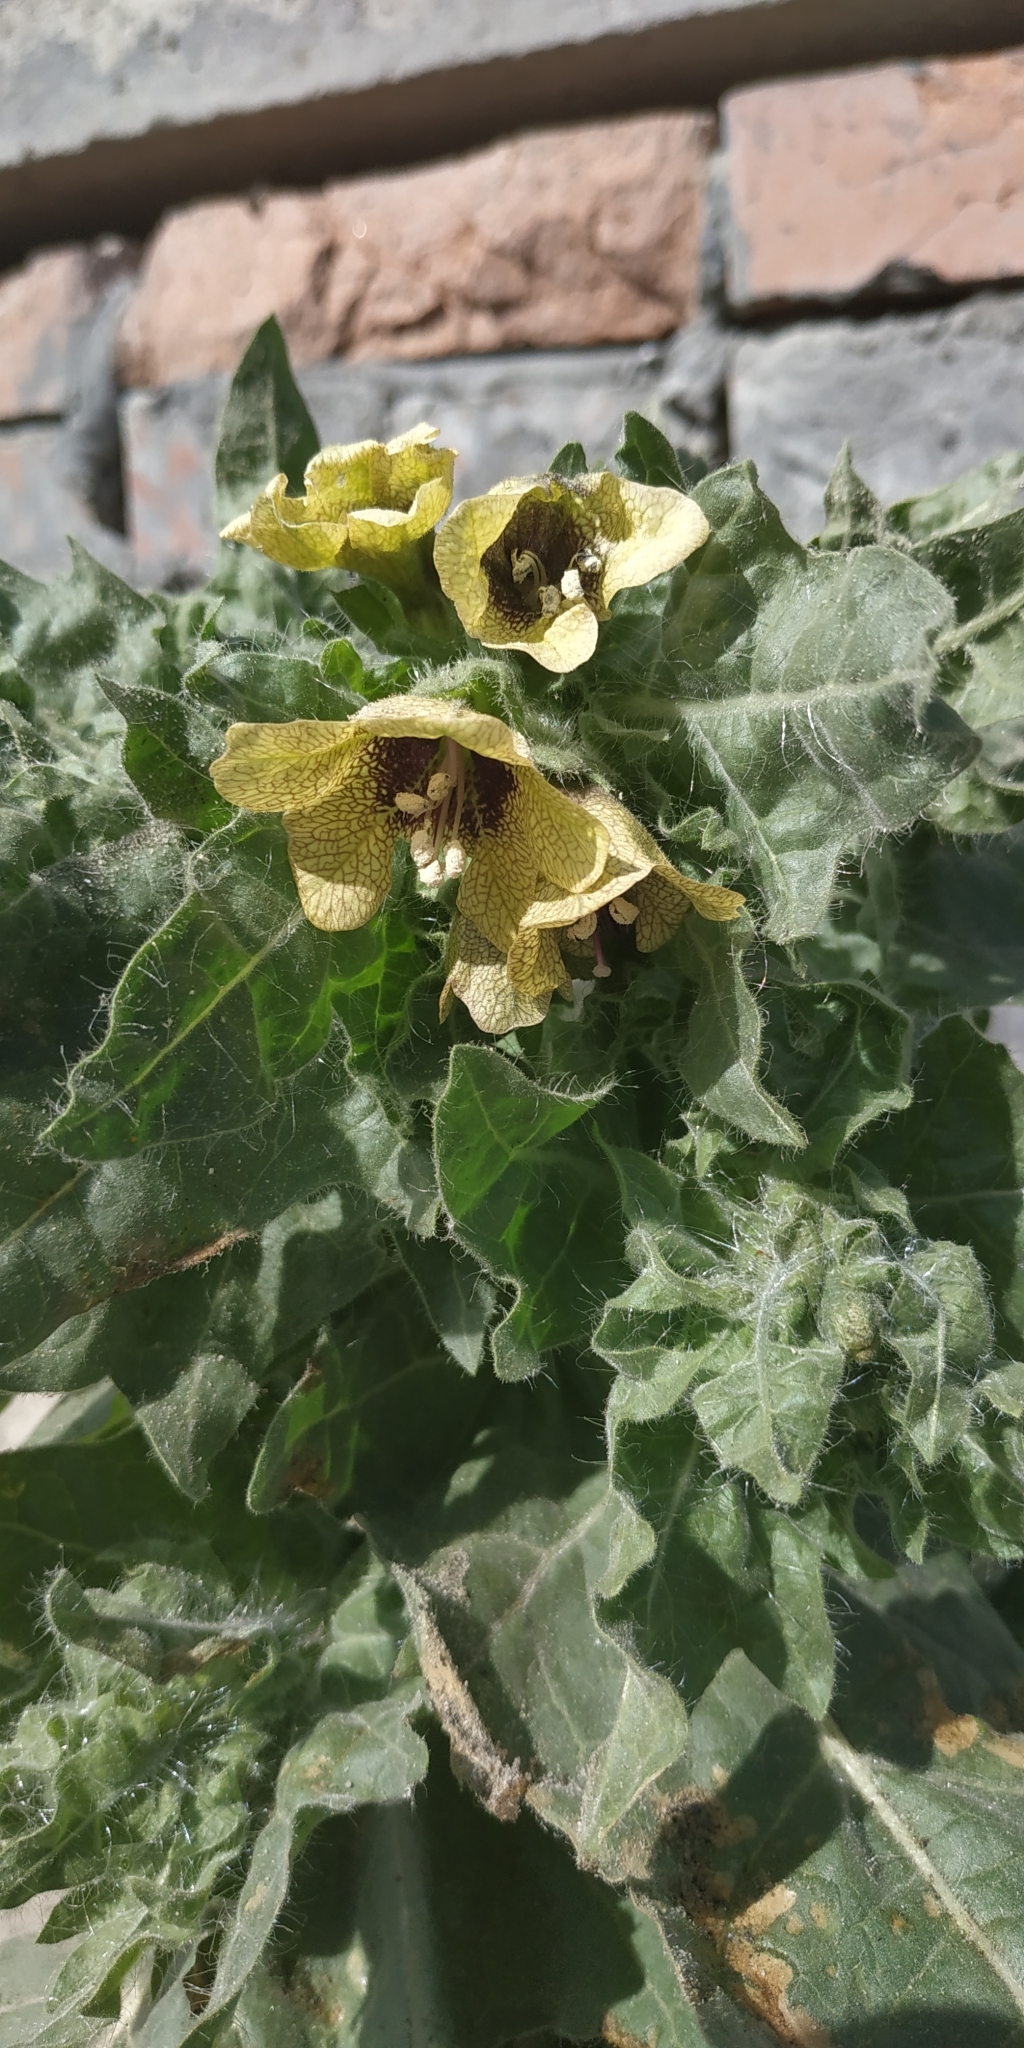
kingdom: Plantae
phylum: Tracheophyta
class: Magnoliopsida
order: Solanales
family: Solanaceae
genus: Hyoscyamus
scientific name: Hyoscyamus niger
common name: Henbane
